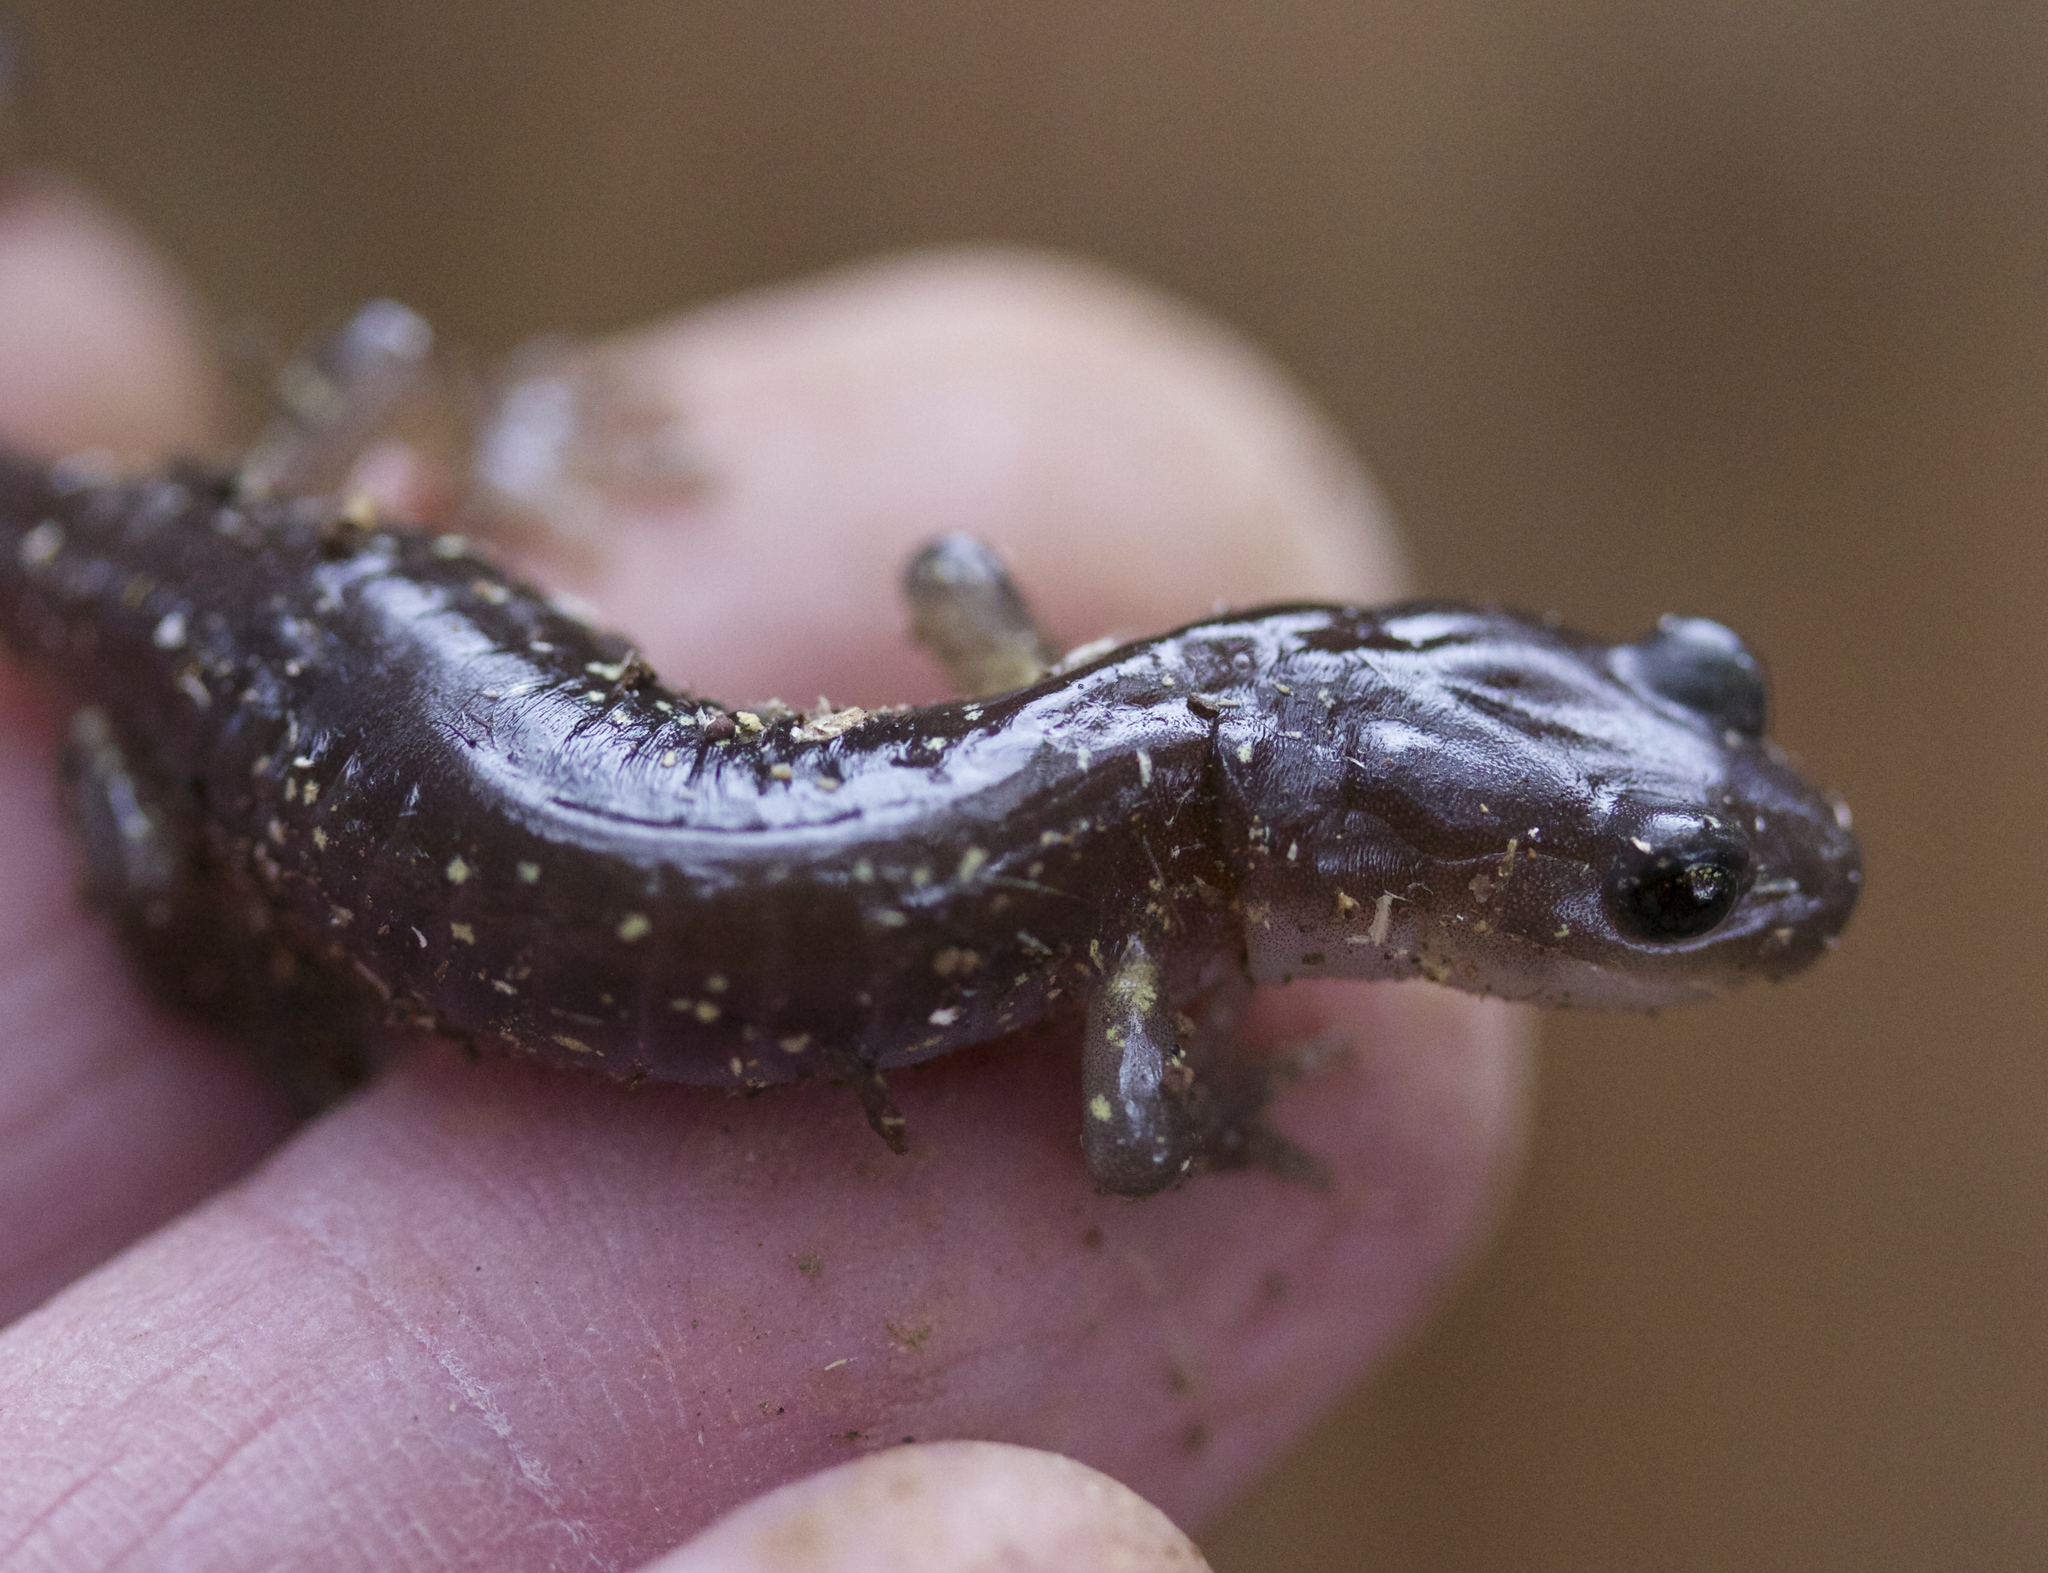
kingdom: Animalia
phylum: Chordata
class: Amphibia
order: Caudata
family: Plethodontidae
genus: Aneides
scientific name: Aneides lugubris
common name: Arboreal salamander
